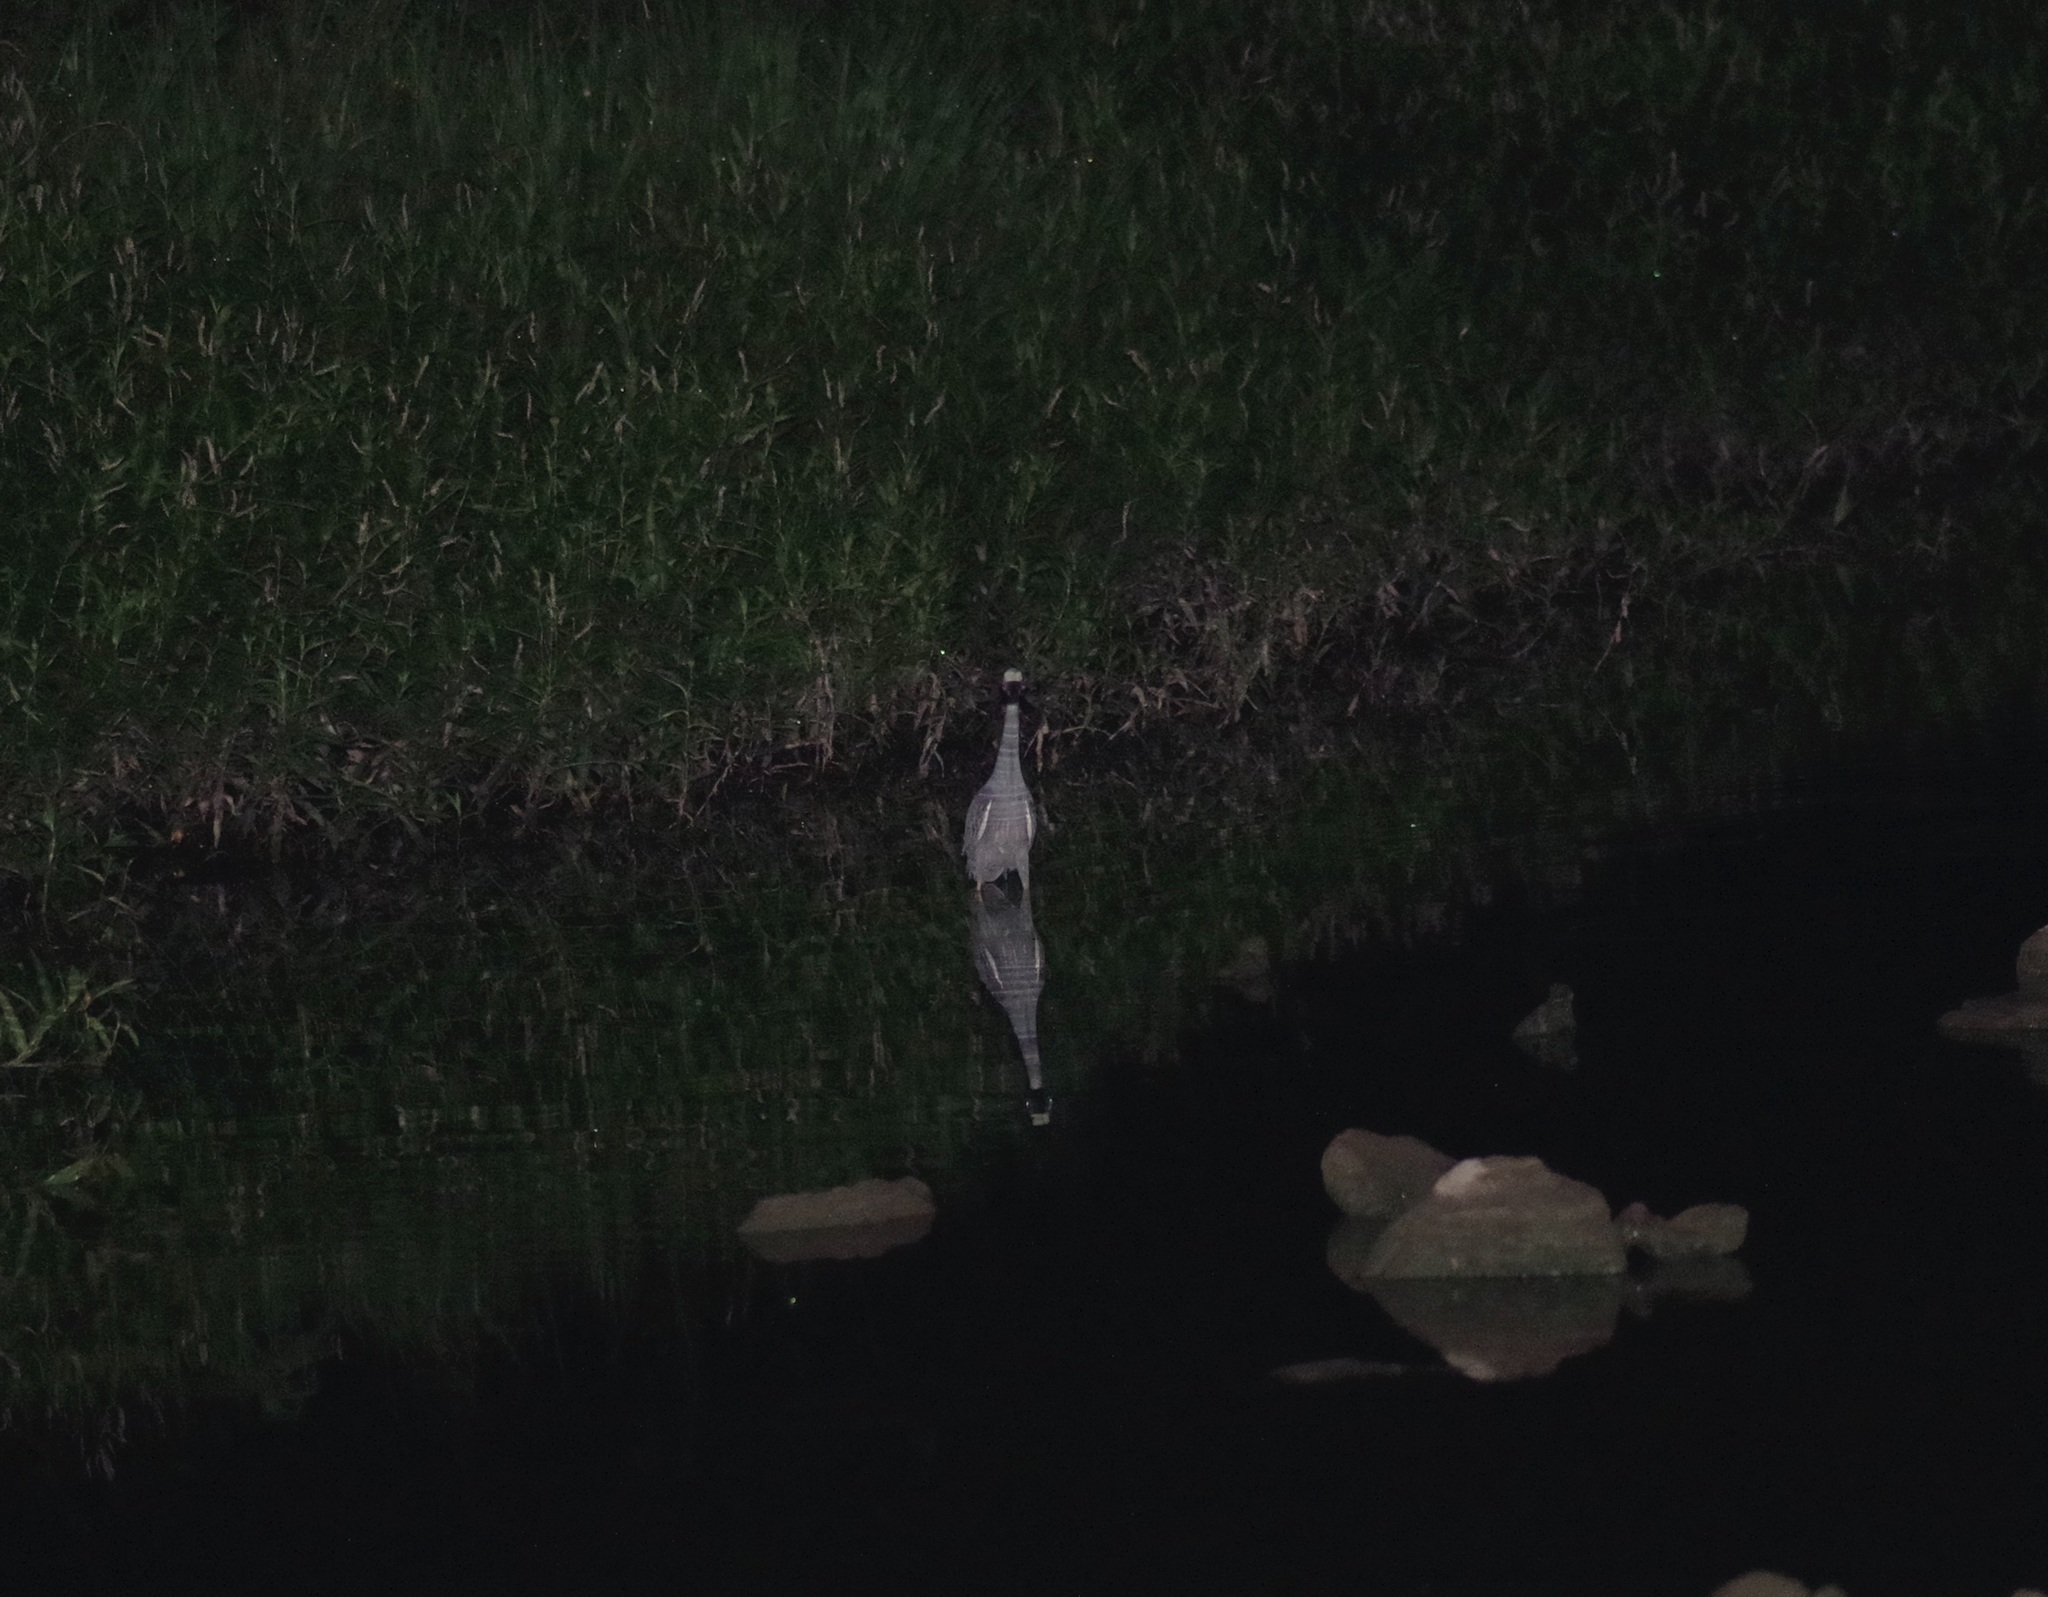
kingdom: Animalia
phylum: Chordata
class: Aves
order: Pelecaniformes
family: Ardeidae
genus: Nyctanassa
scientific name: Nyctanassa violacea
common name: Yellow-crowned night heron
